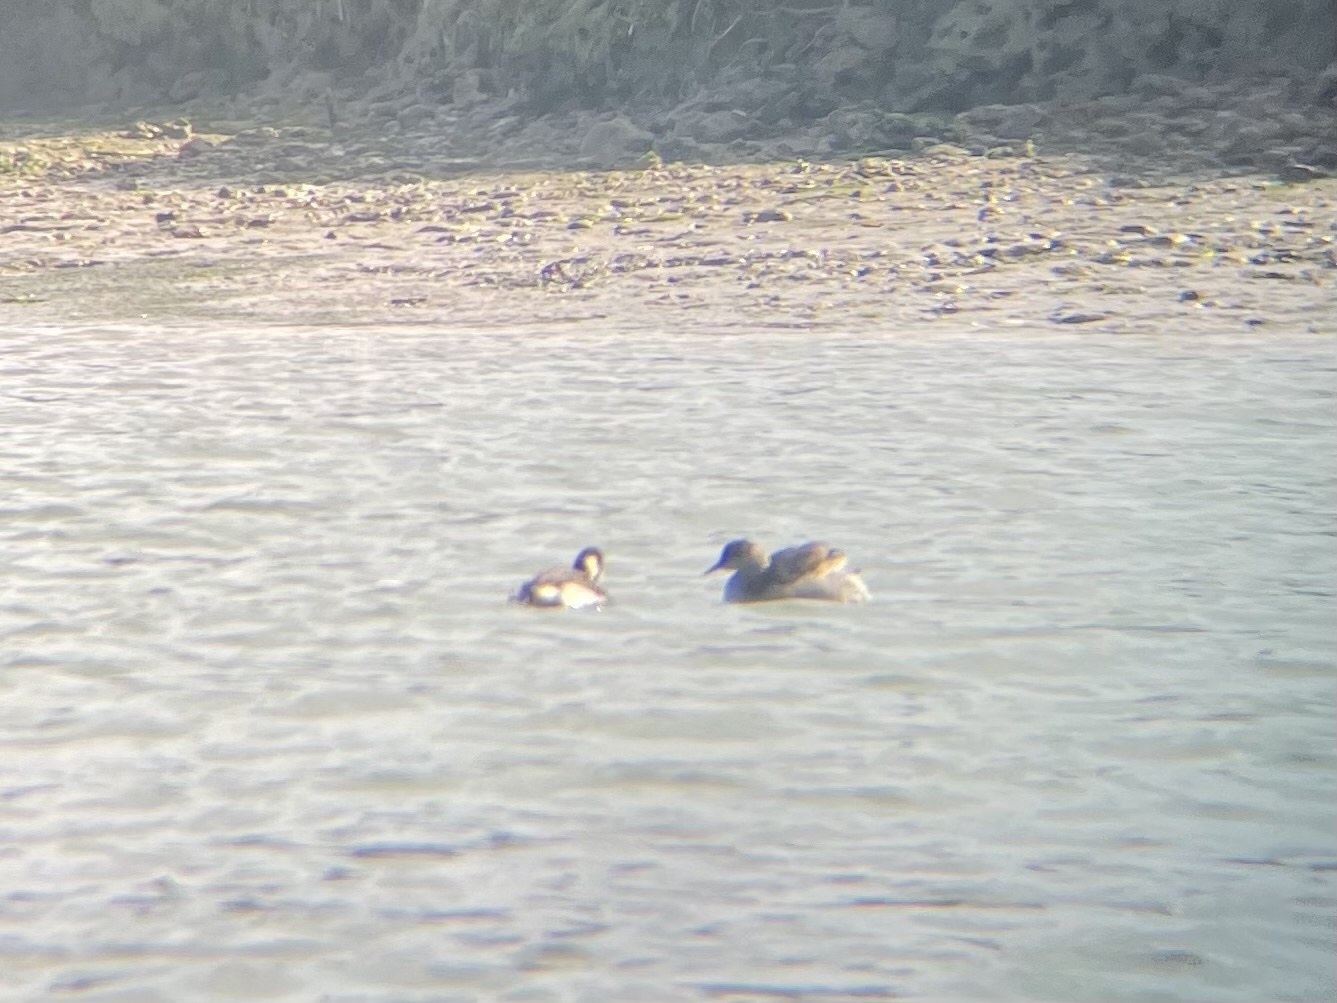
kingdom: Animalia
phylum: Chordata
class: Aves
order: Podicipediformes
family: Podicipedidae
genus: Podiceps
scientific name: Podiceps nigricollis
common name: Black-necked grebe
